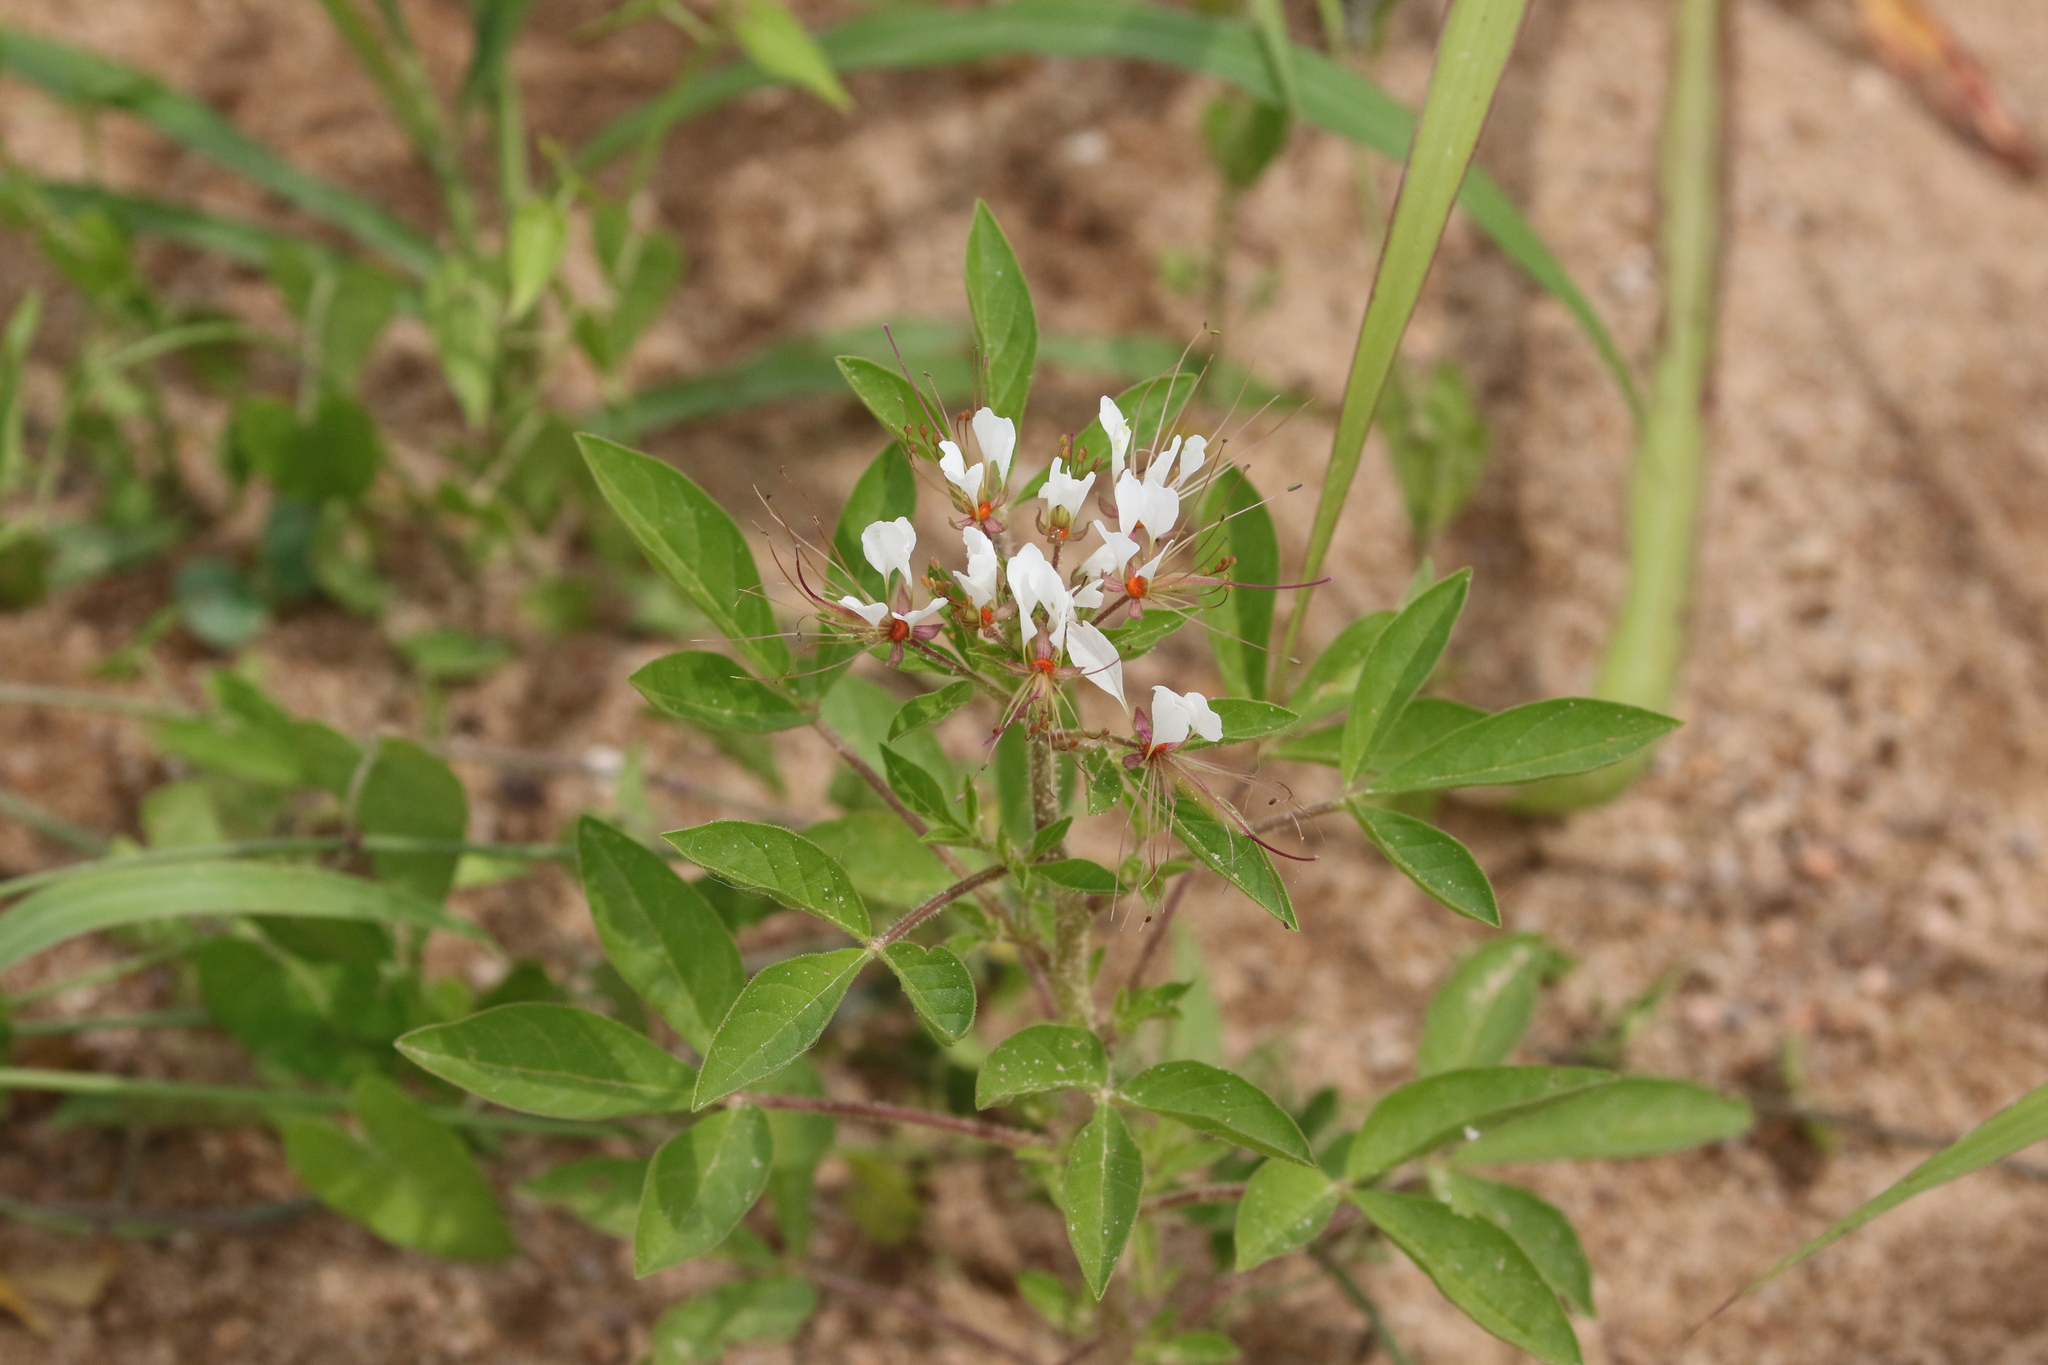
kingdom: Plantae
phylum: Tracheophyta
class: Magnoliopsida
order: Brassicales
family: Cleomaceae
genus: Polanisia
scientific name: Polanisia dodecandra
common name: Clammyweed
